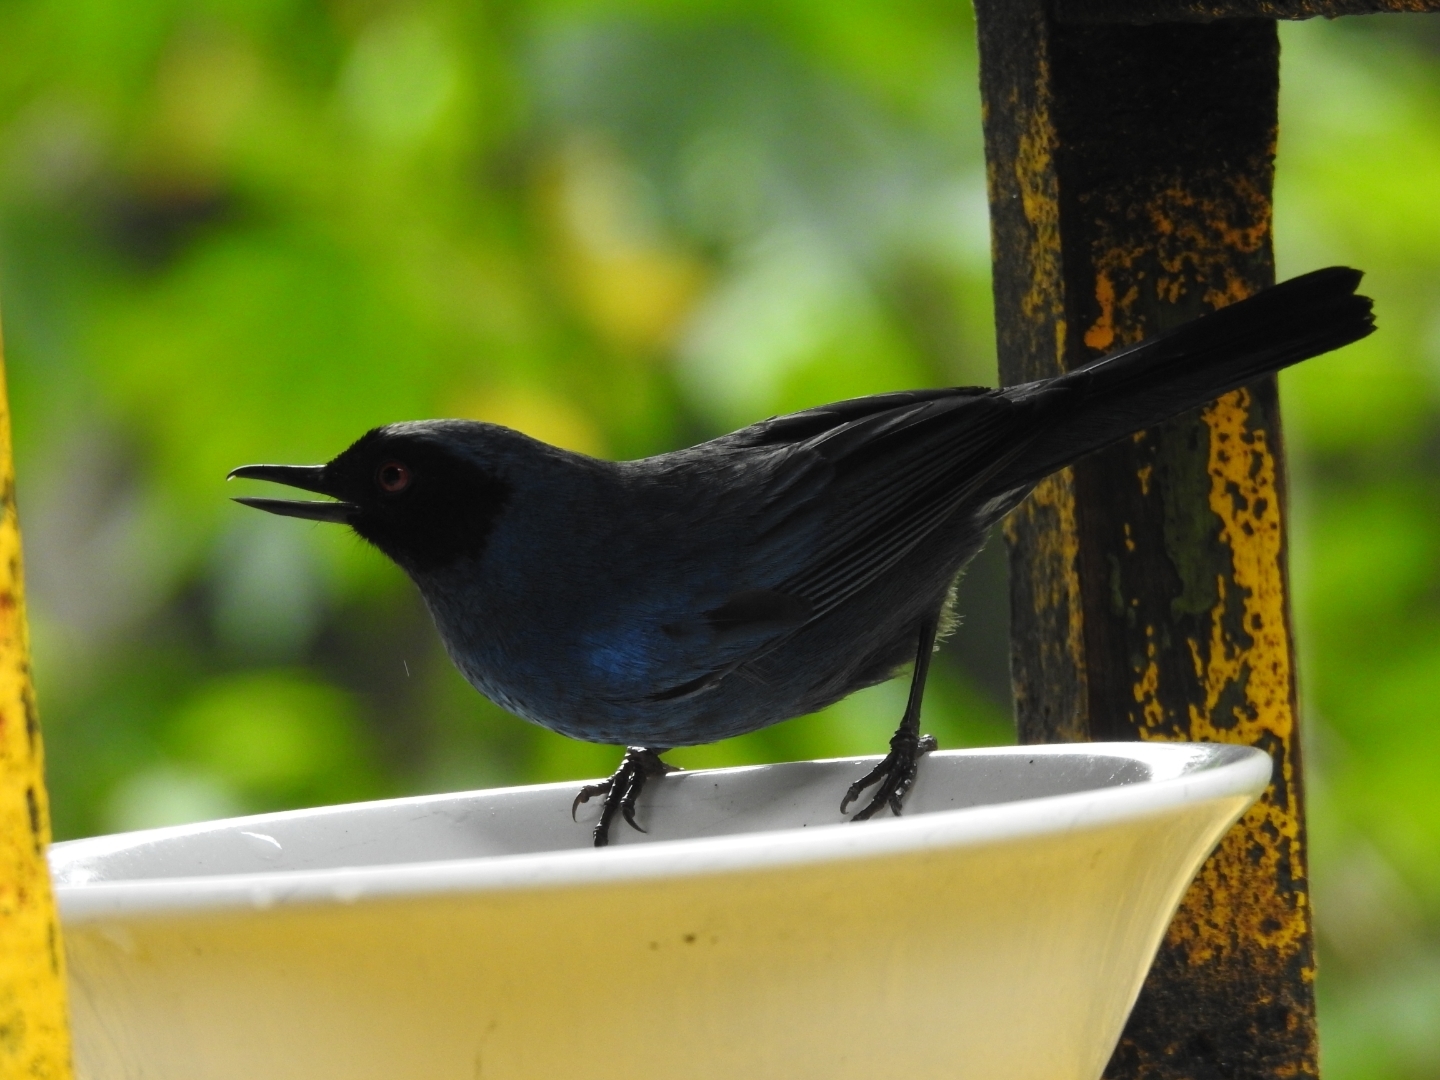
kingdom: Animalia
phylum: Chordata
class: Aves
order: Passeriformes
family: Thraupidae
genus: Diglossa
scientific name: Diglossa cyanea
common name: Masked flowerpiercer
